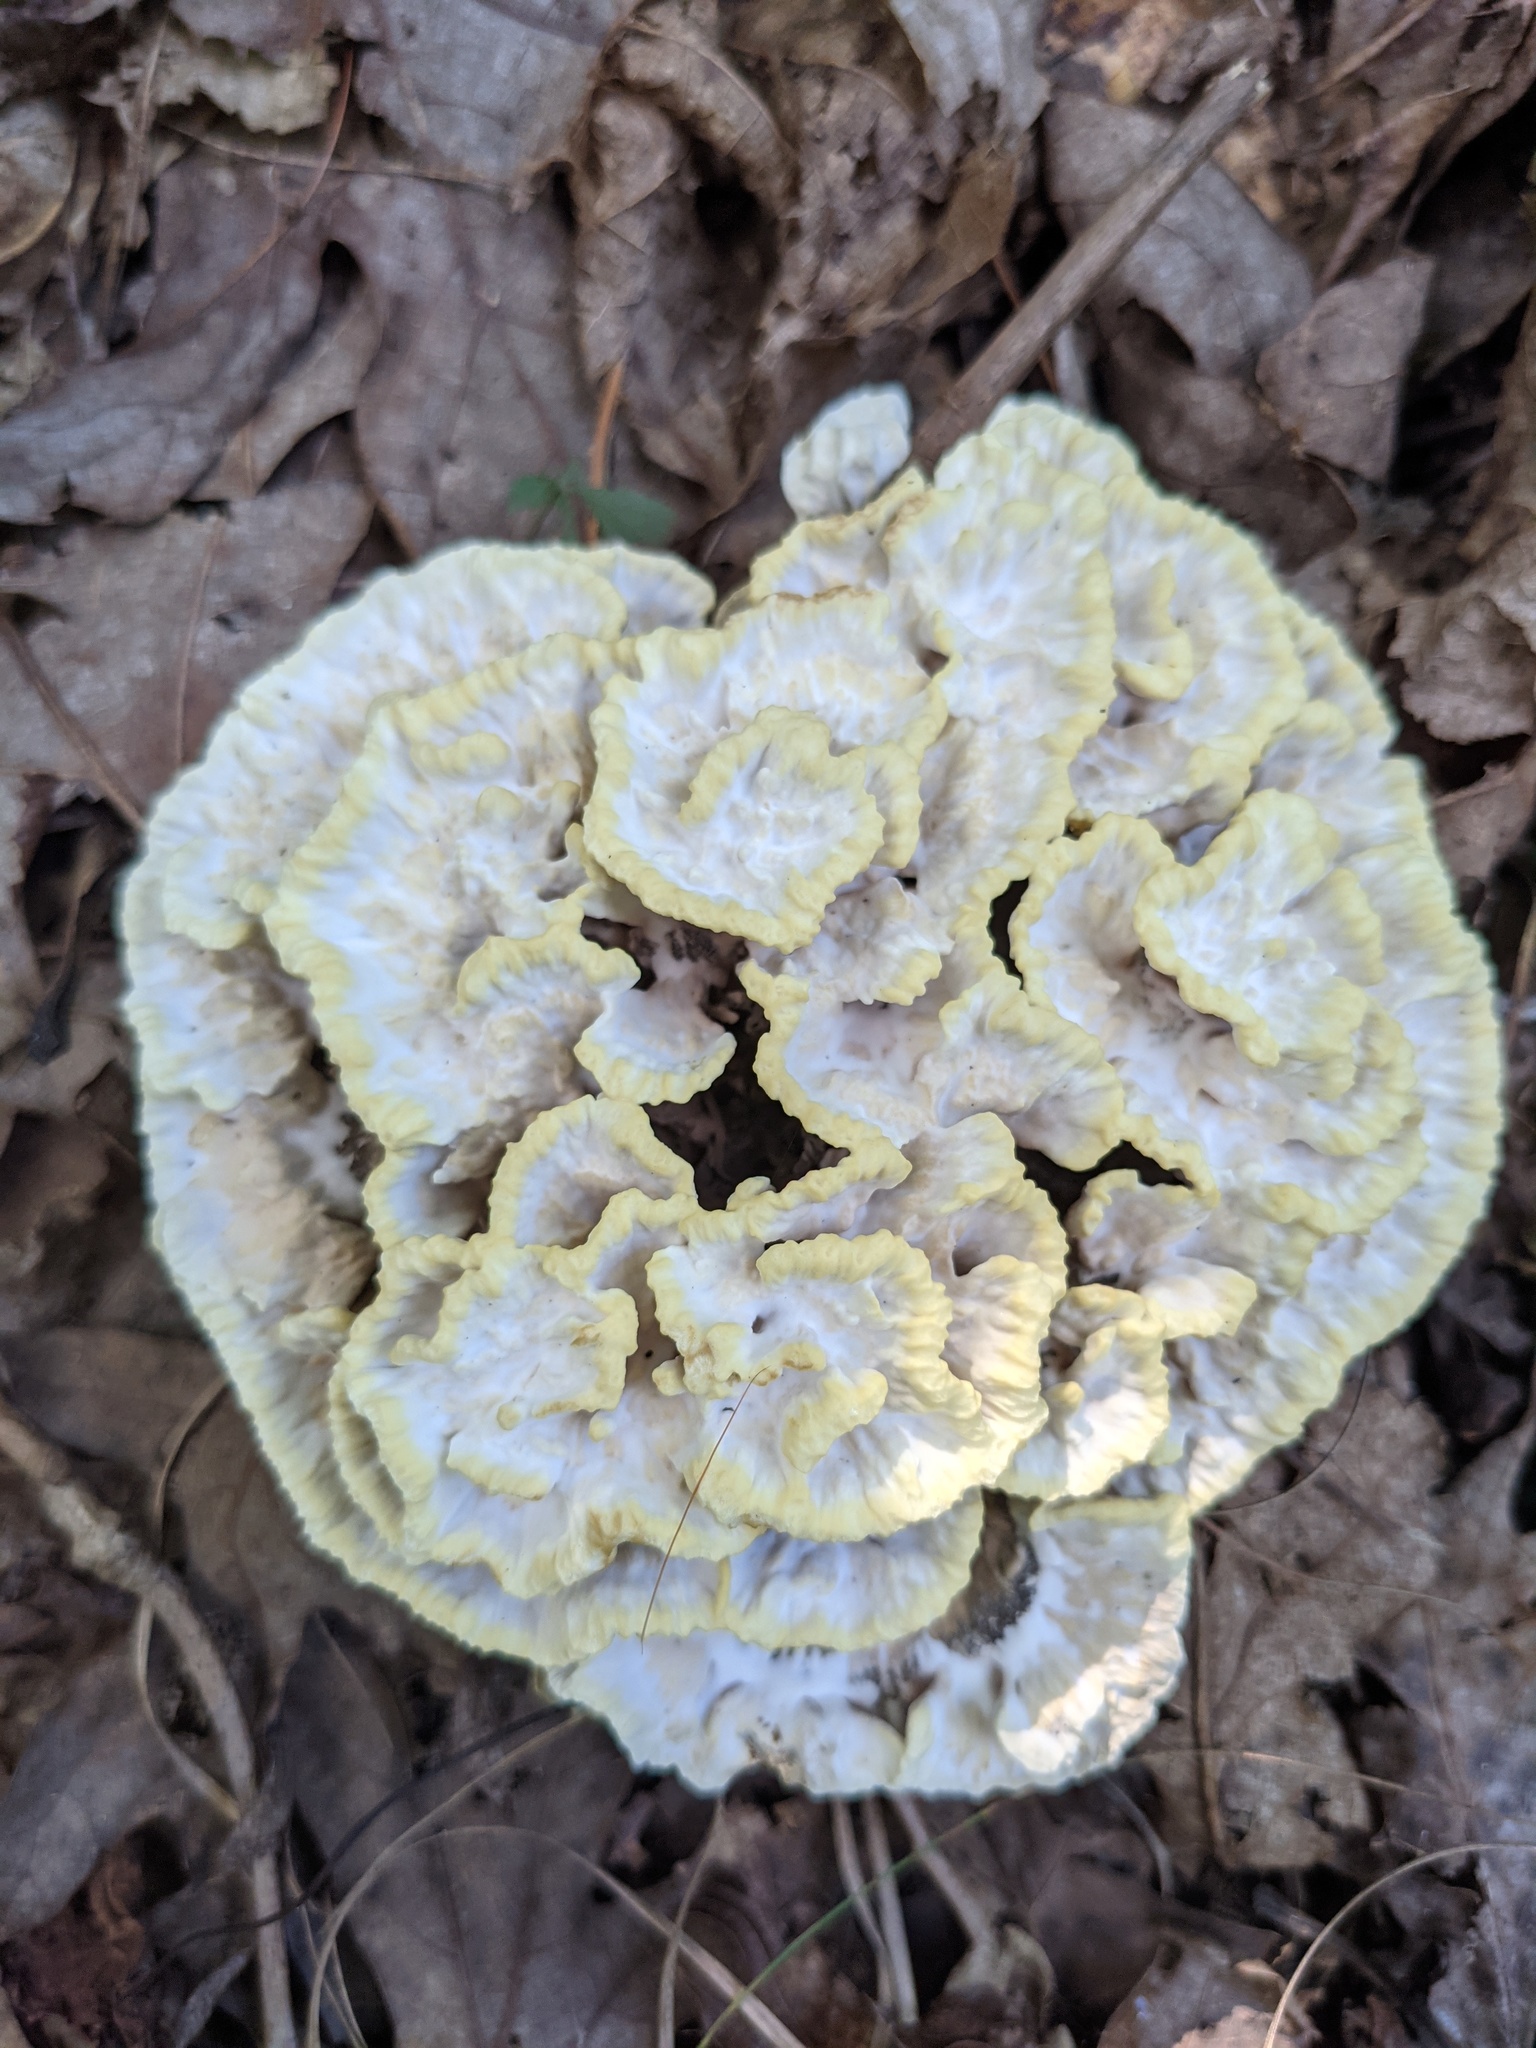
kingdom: Fungi
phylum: Basidiomycota
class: Agaricomycetes
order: Thelephorales
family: Thelephoraceae
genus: Thelephora
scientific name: Thelephora vialis
